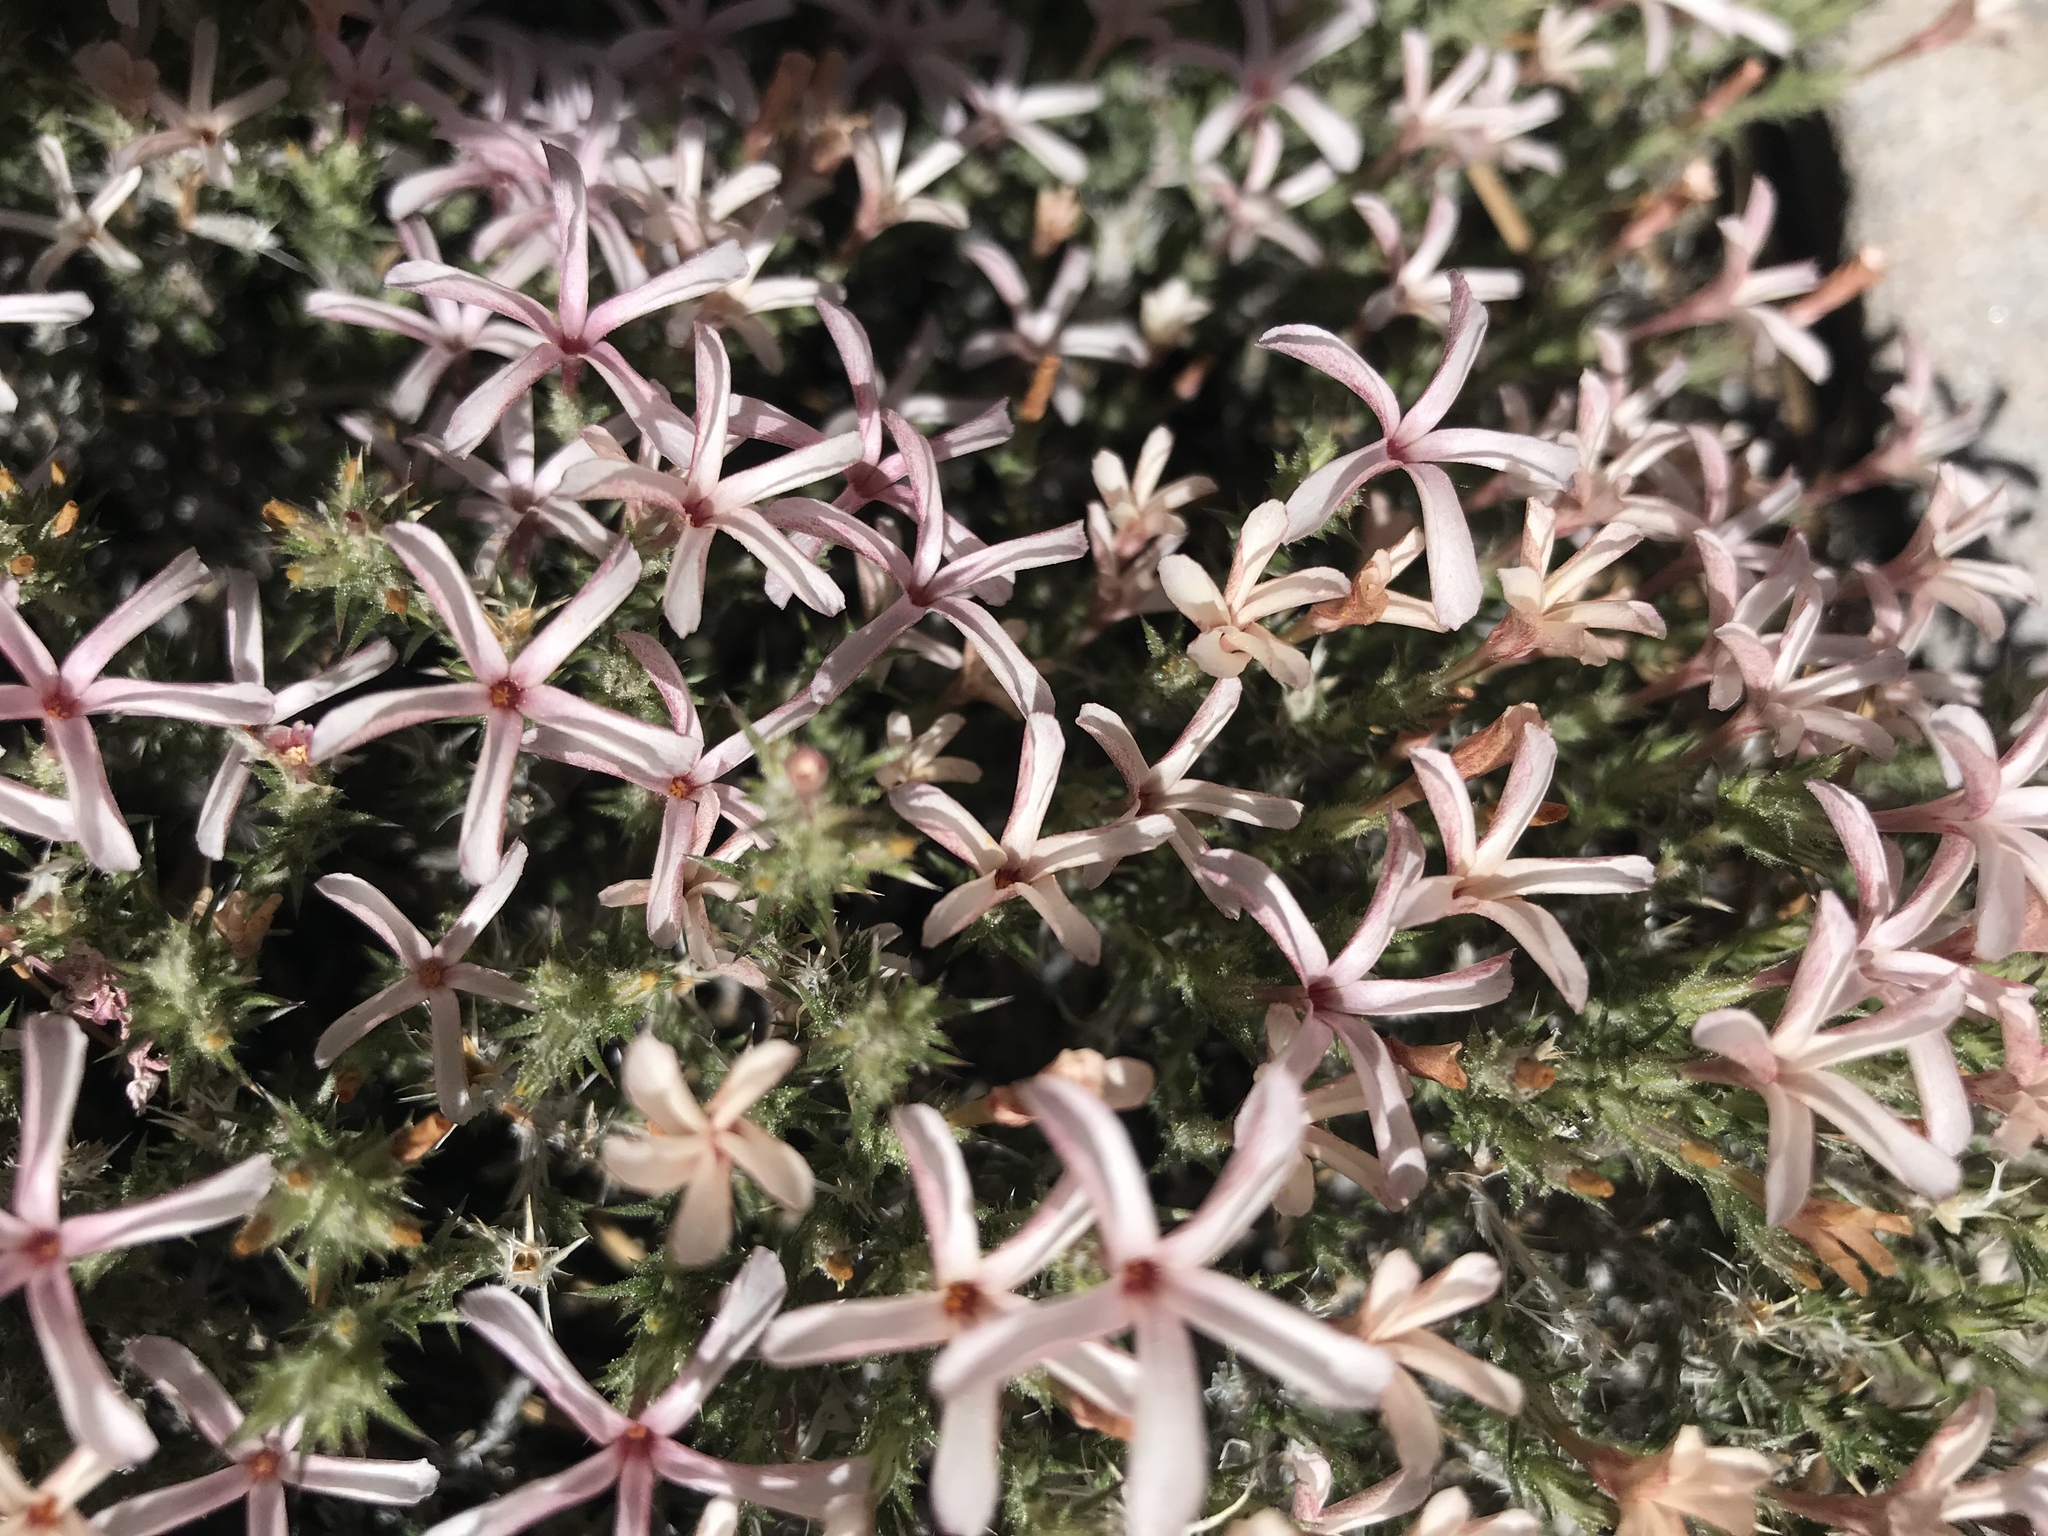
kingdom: Plantae
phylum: Tracheophyta
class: Magnoliopsida
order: Ericales
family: Polemoniaceae
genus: Linanthus
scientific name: Linanthus pungens
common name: Granite prickly phlox
